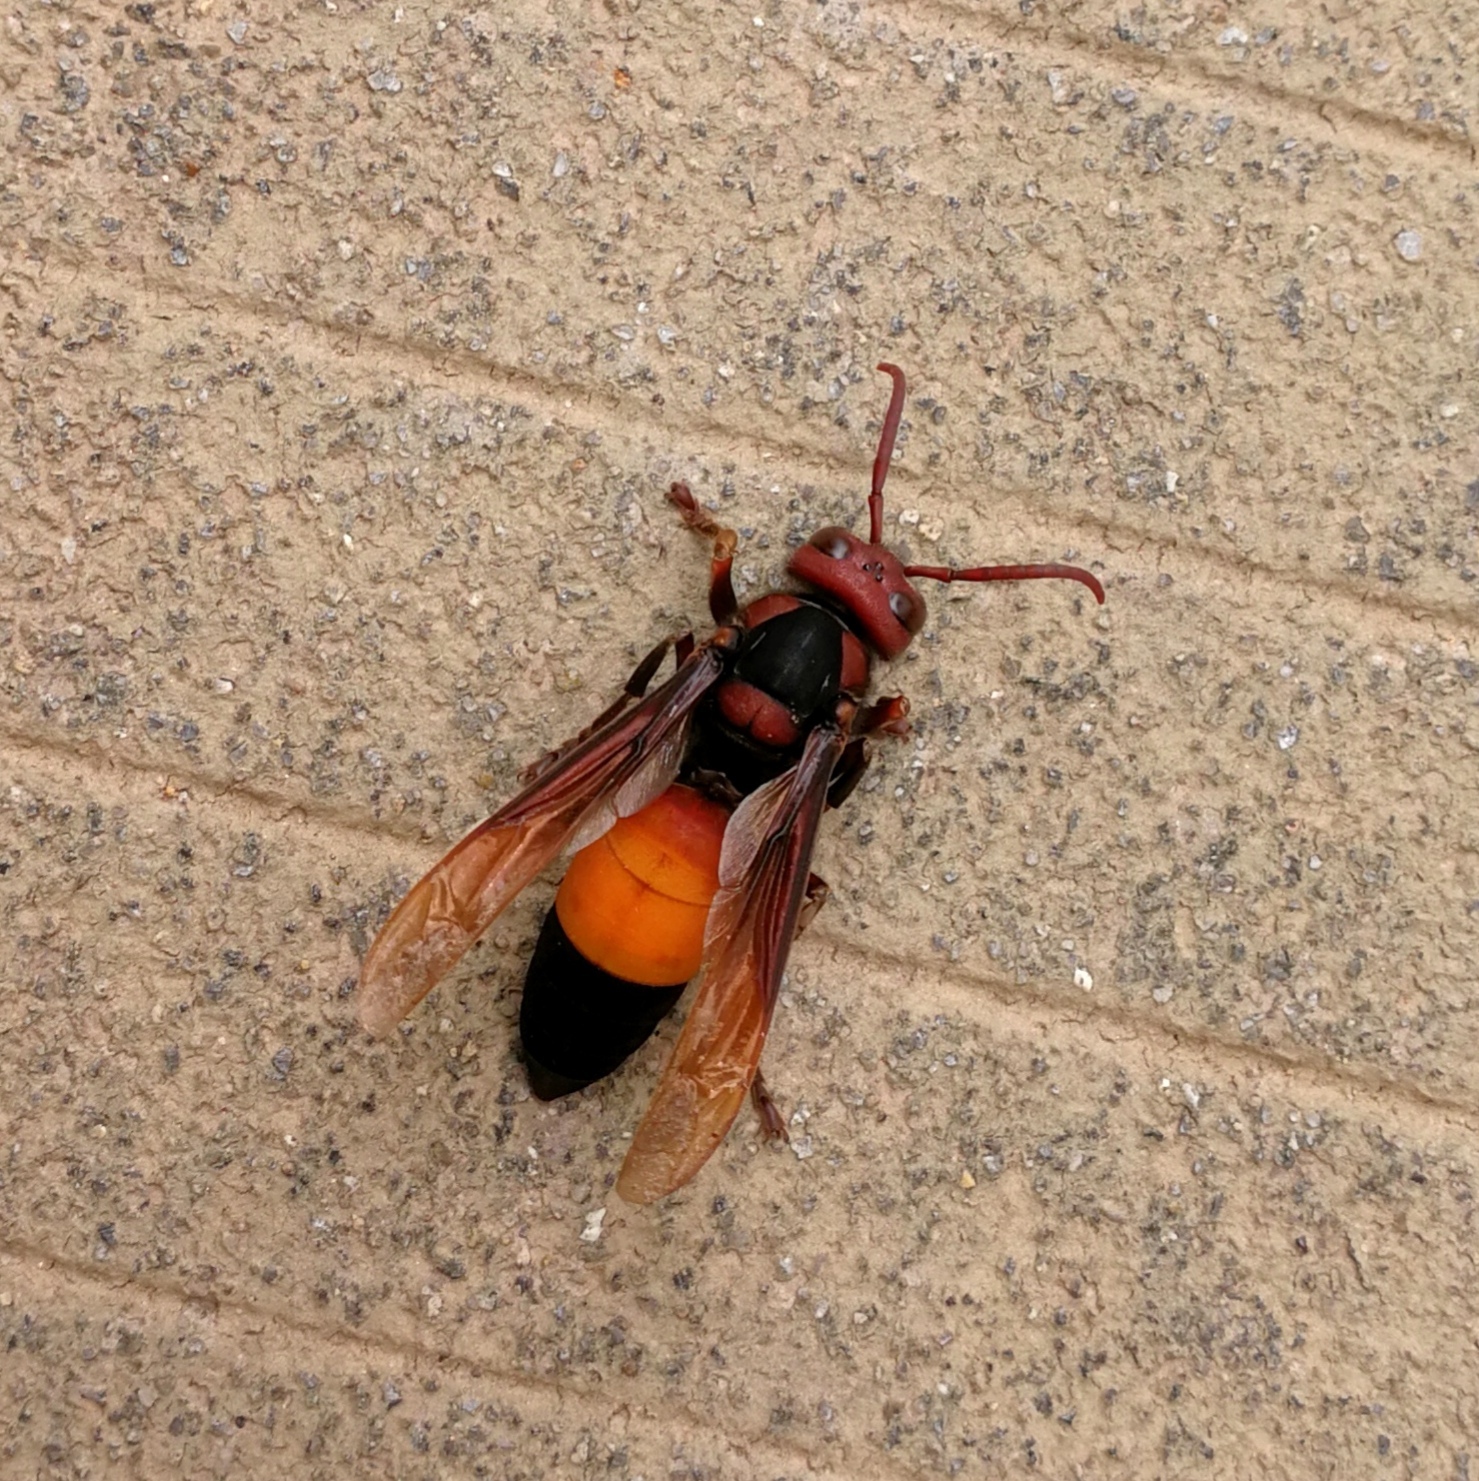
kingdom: Animalia
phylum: Arthropoda
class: Insecta
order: Hymenoptera
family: Vespidae
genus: Vespa
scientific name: Vespa affinis
